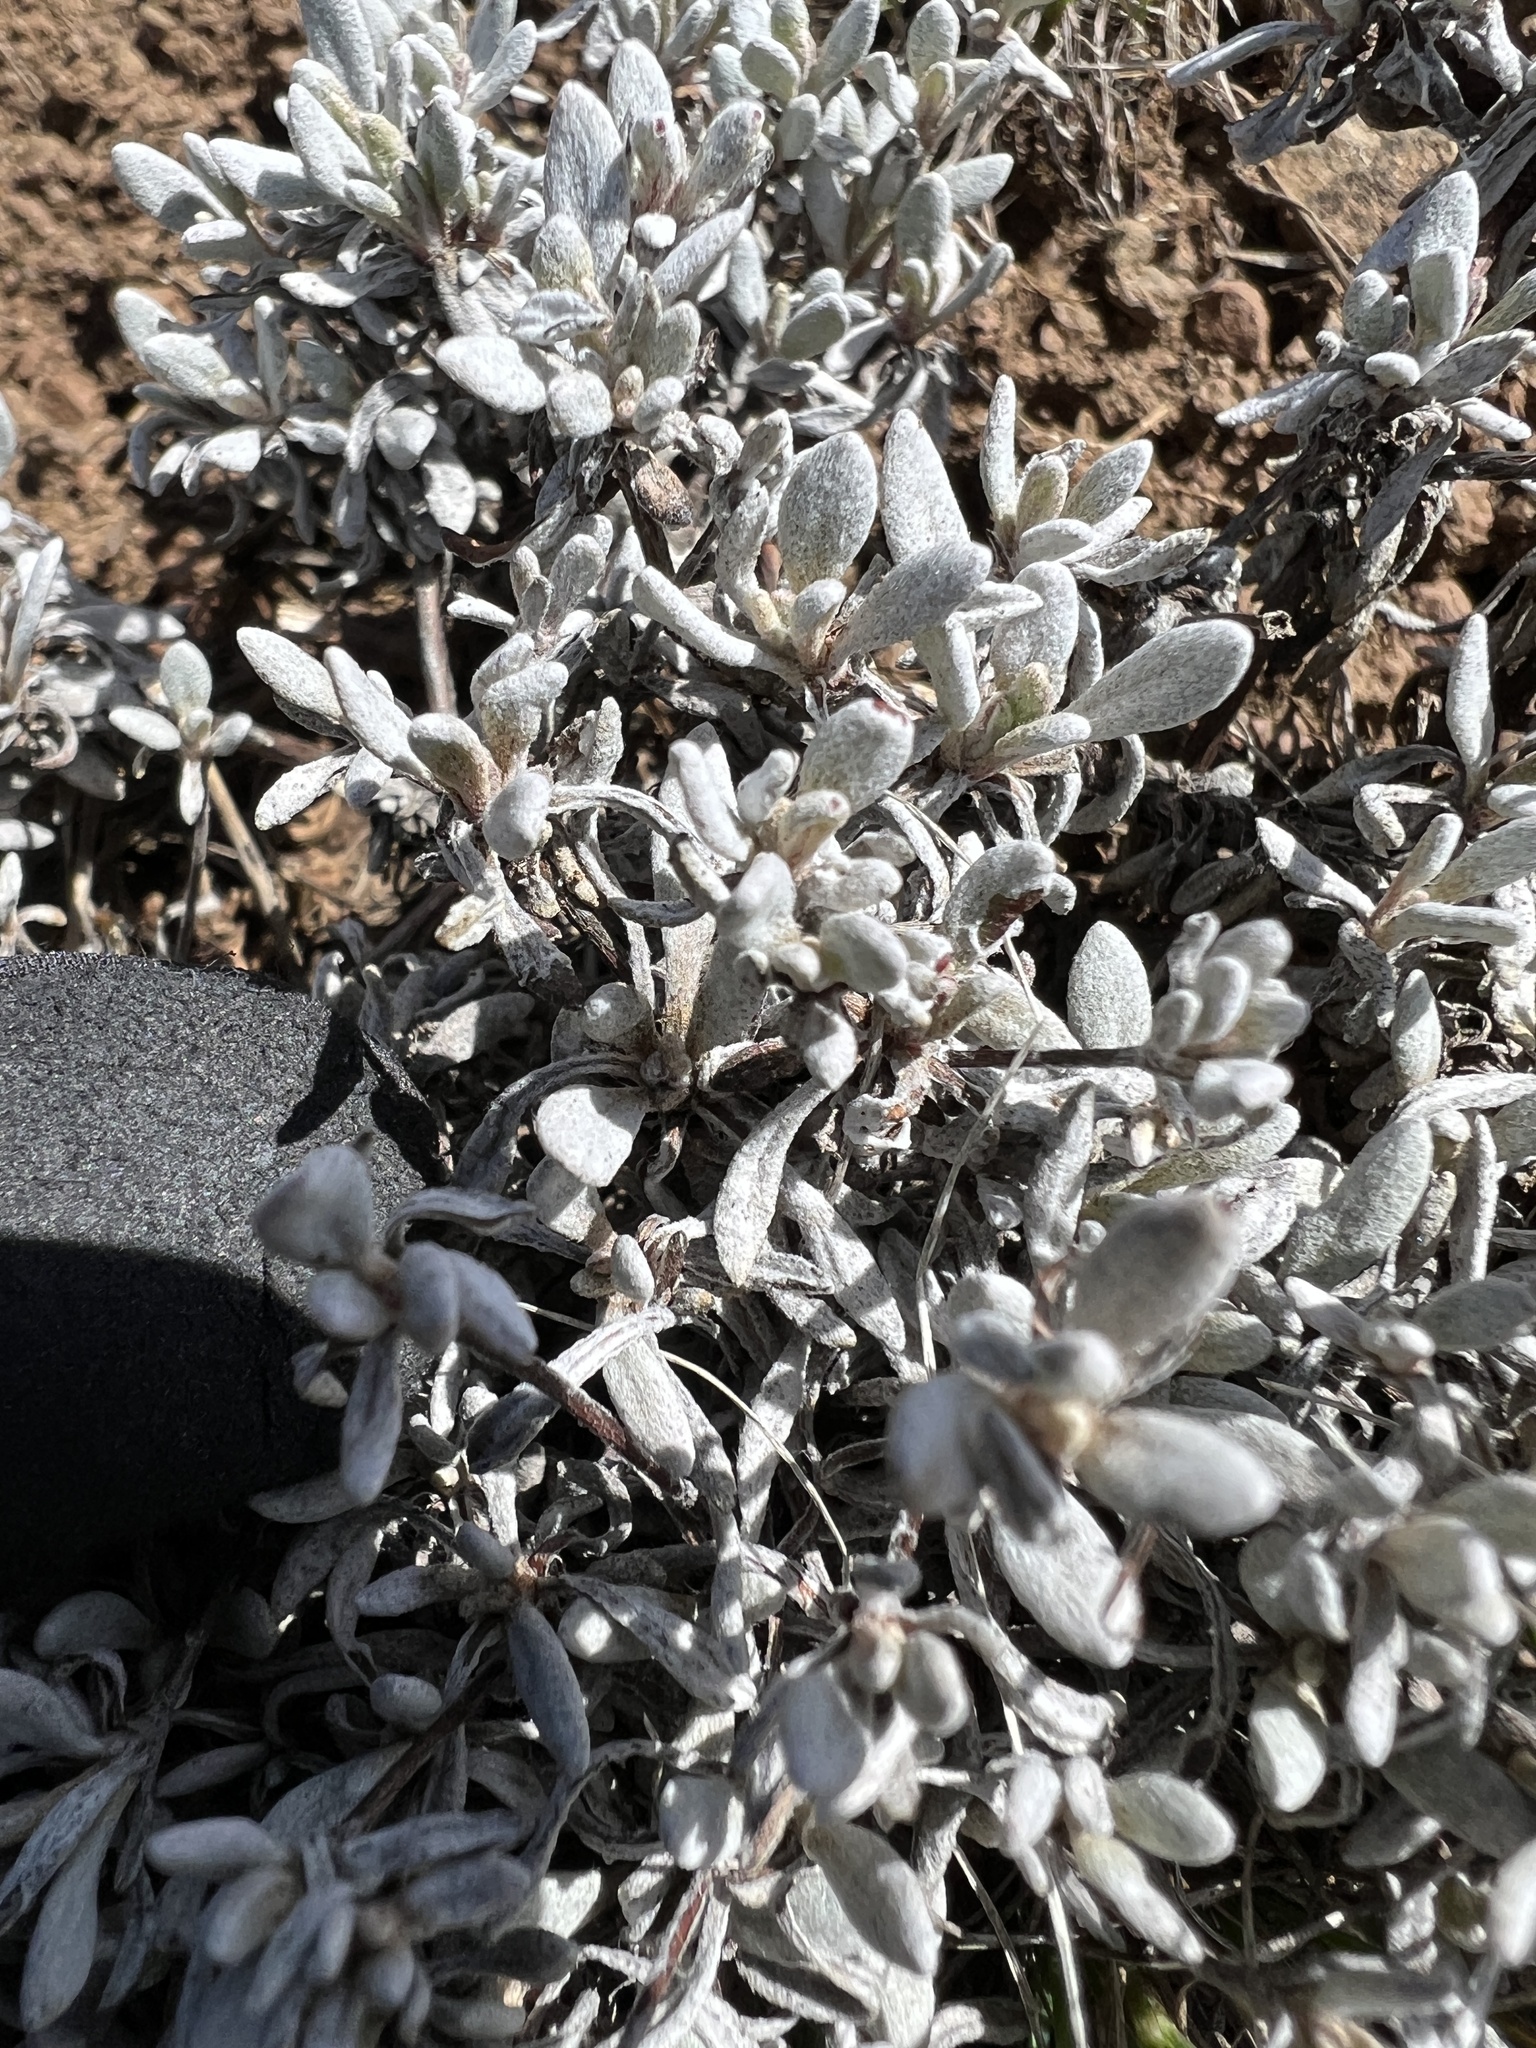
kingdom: Plantae
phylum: Tracheophyta
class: Magnoliopsida
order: Caryophyllales
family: Polygonaceae
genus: Eriogonum
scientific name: Eriogonum douglasii
